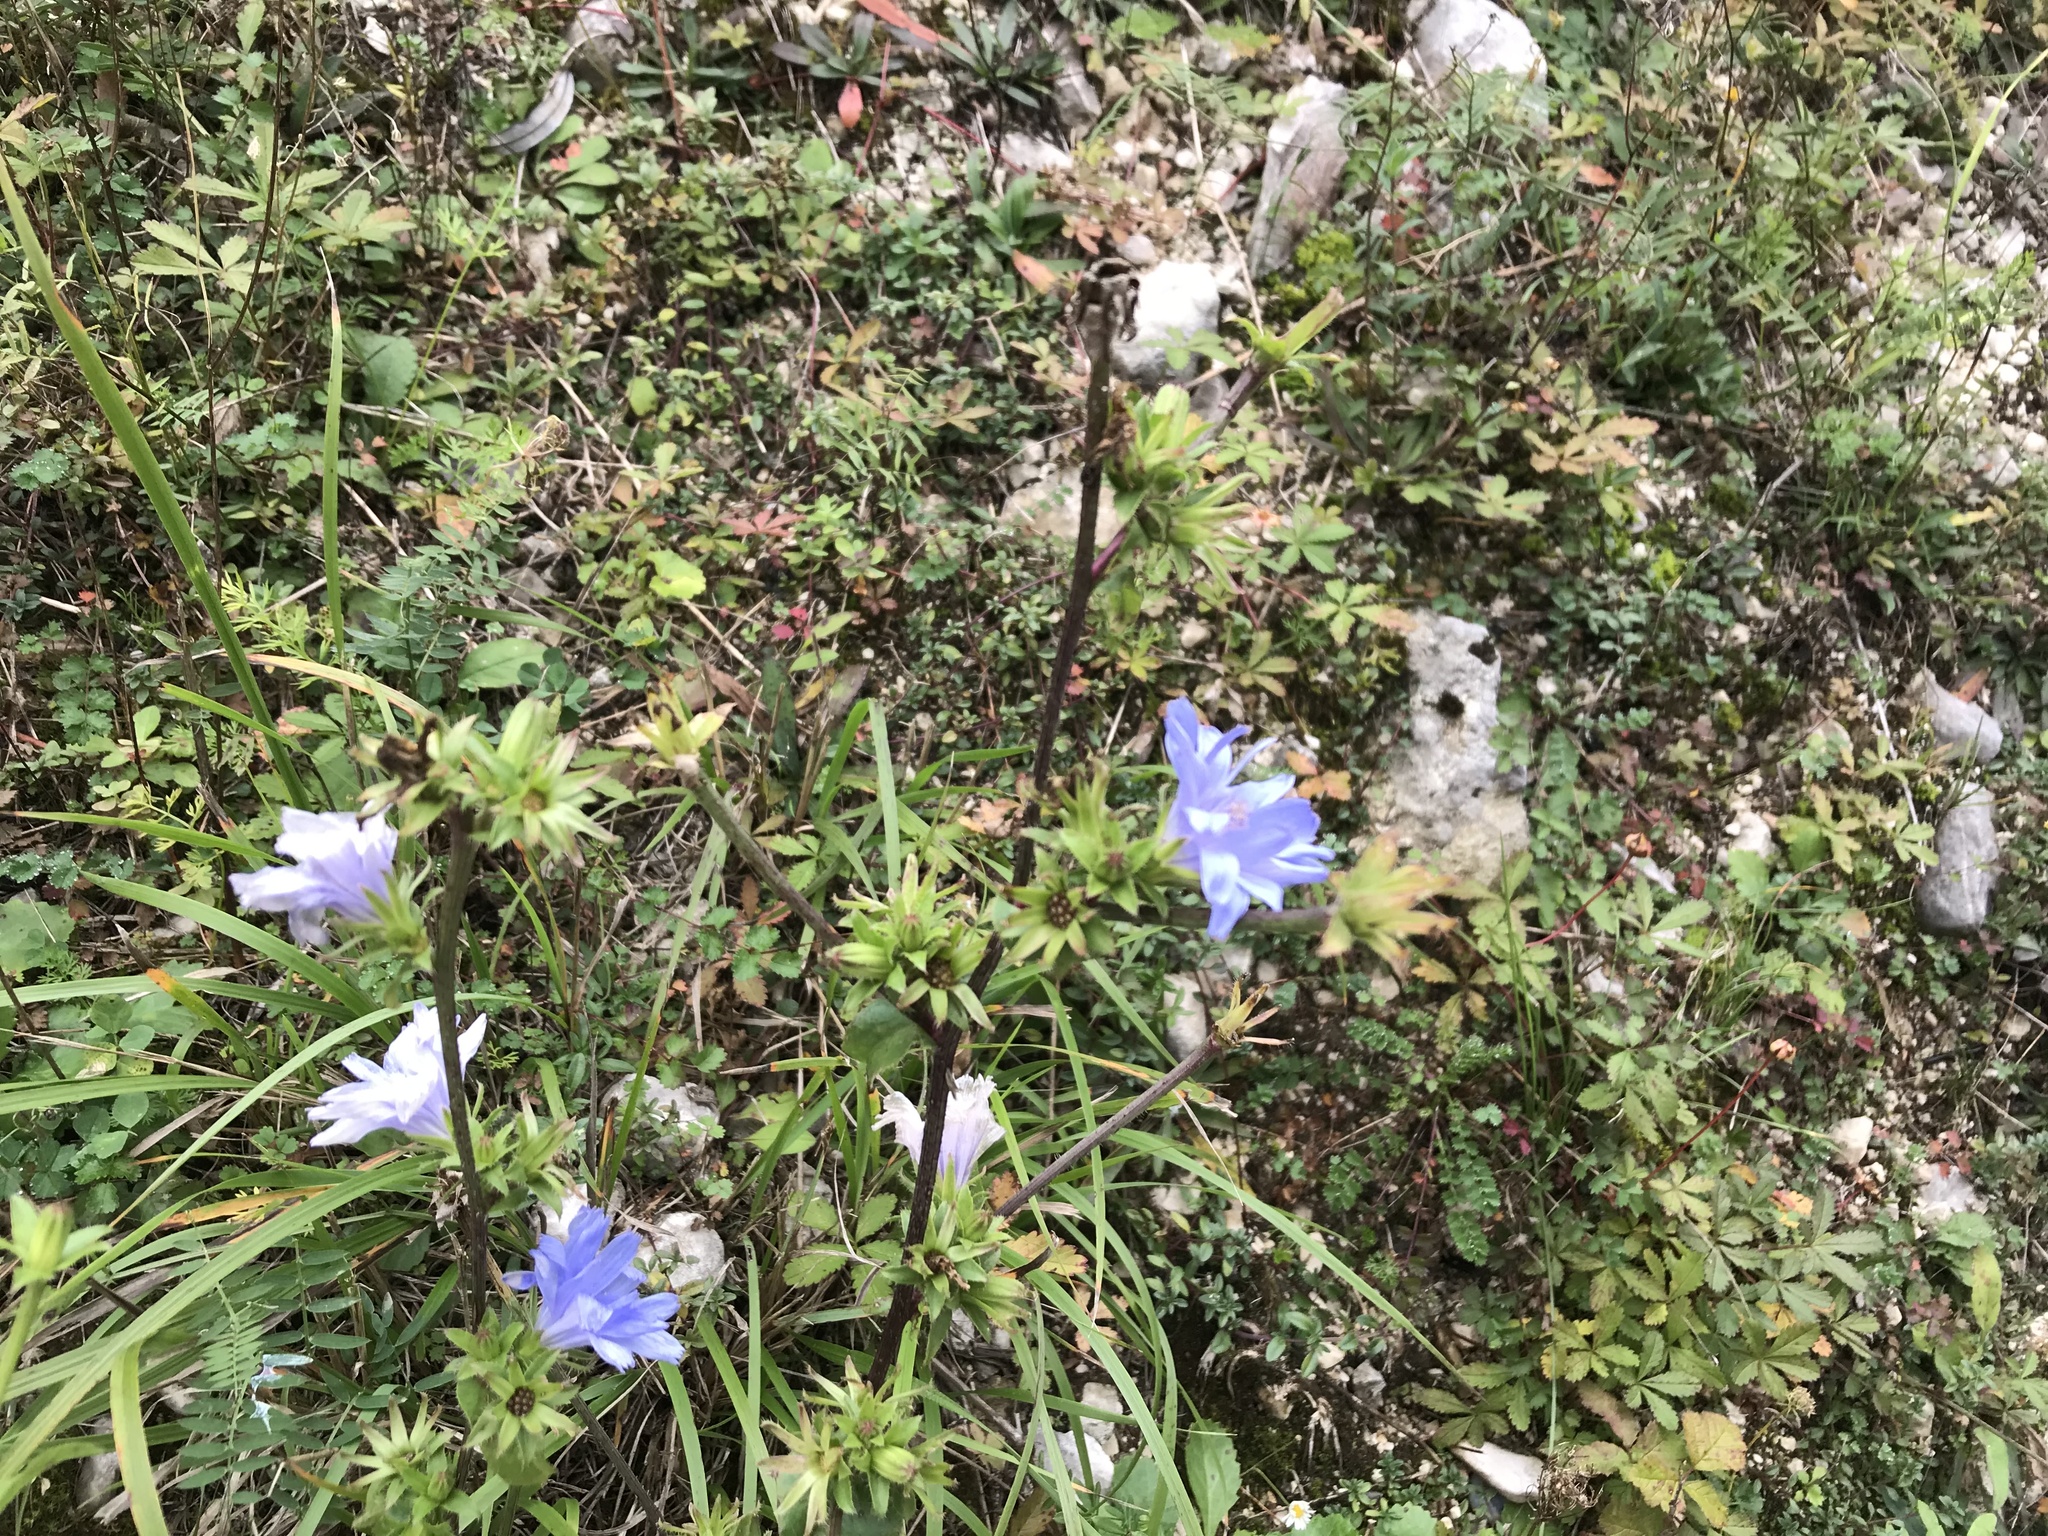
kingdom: Plantae
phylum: Tracheophyta
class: Magnoliopsida
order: Asterales
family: Asteraceae
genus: Cichorium
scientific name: Cichorium intybus
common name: Chicory
